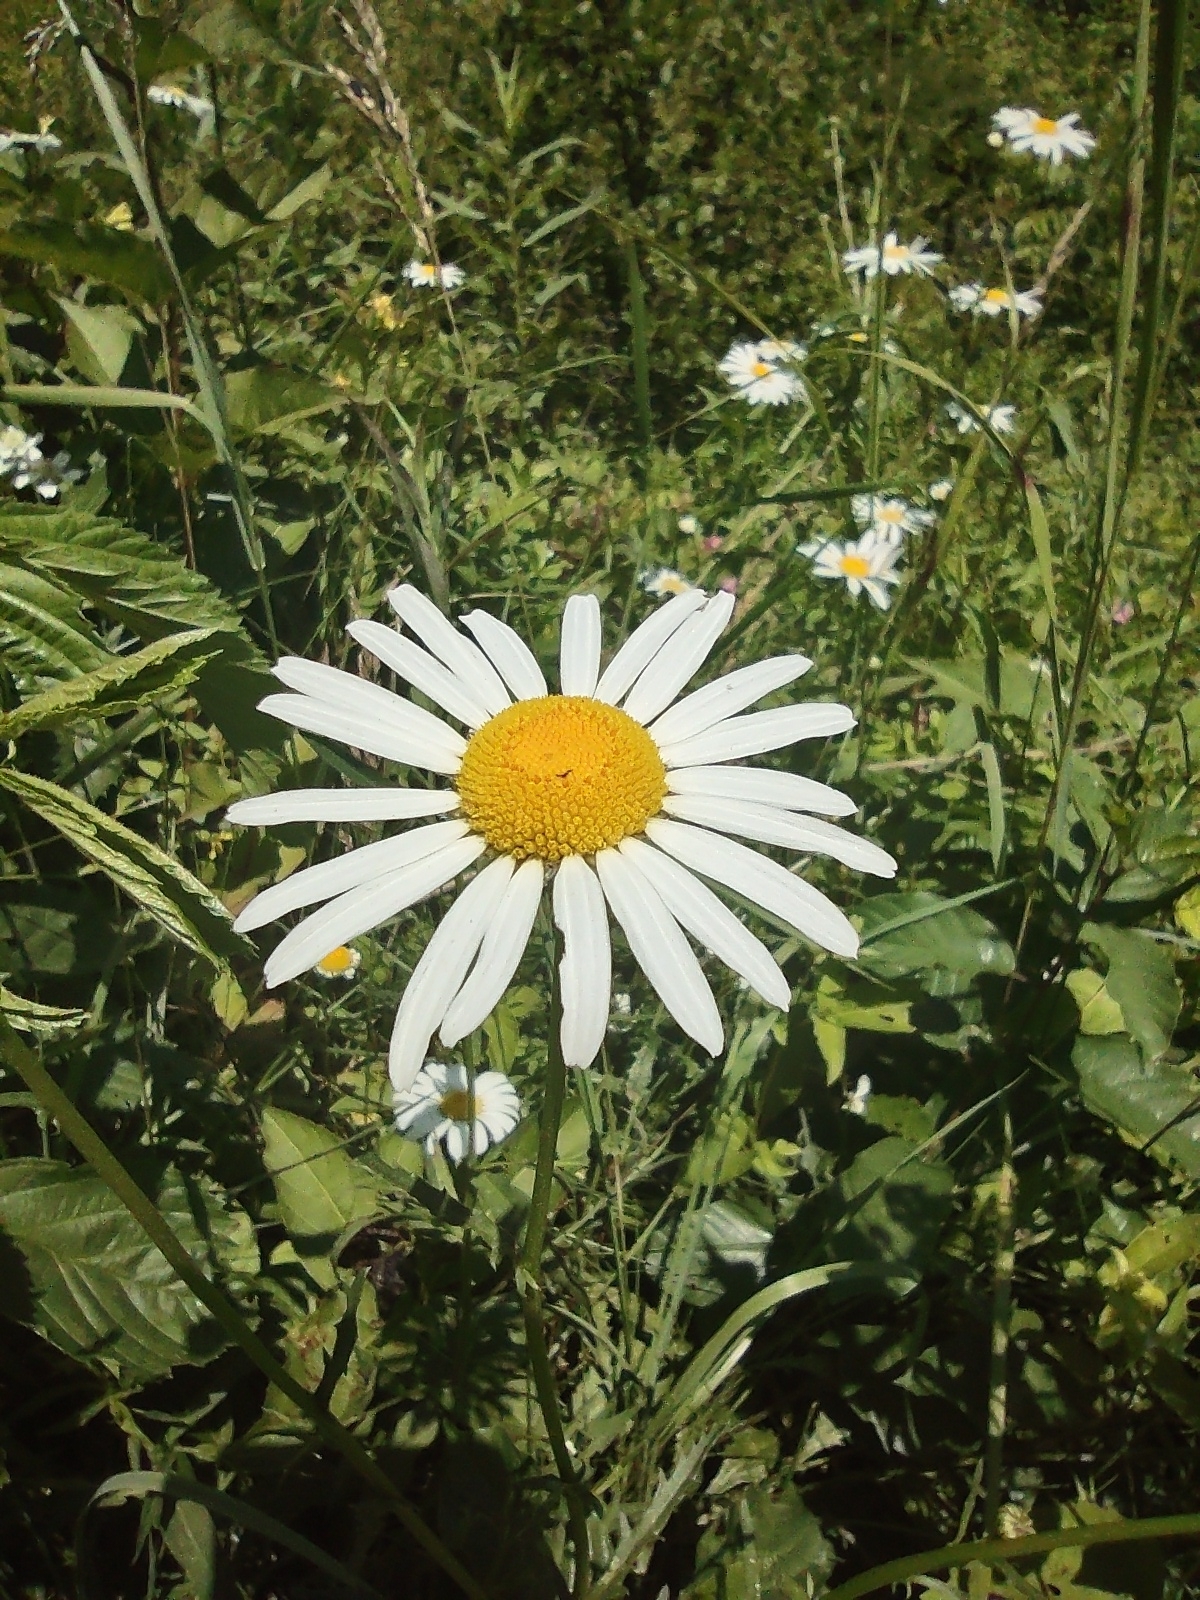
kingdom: Plantae
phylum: Tracheophyta
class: Magnoliopsida
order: Asterales
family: Asteraceae
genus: Leucanthemum
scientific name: Leucanthemum vulgare
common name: Oxeye daisy
